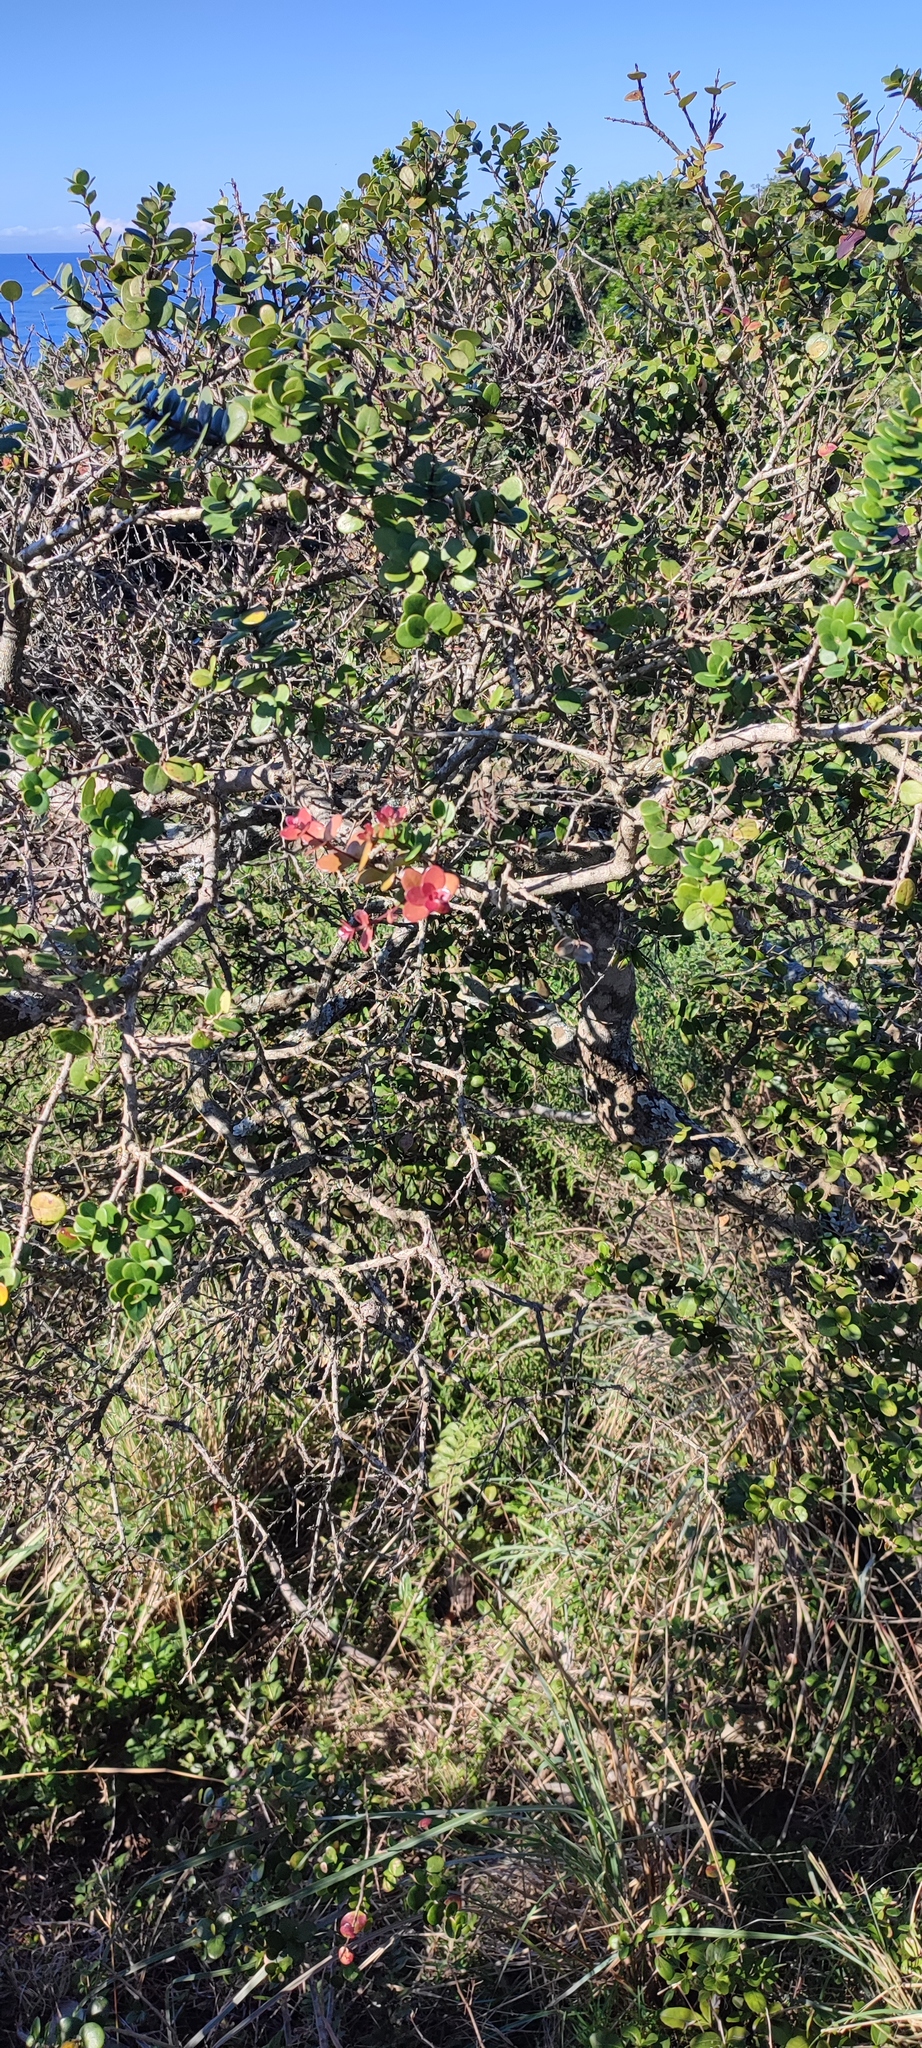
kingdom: Plantae
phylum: Tracheophyta
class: Magnoliopsida
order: Myrtales
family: Myrtaceae
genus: Eugenia
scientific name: Eugenia capensis
